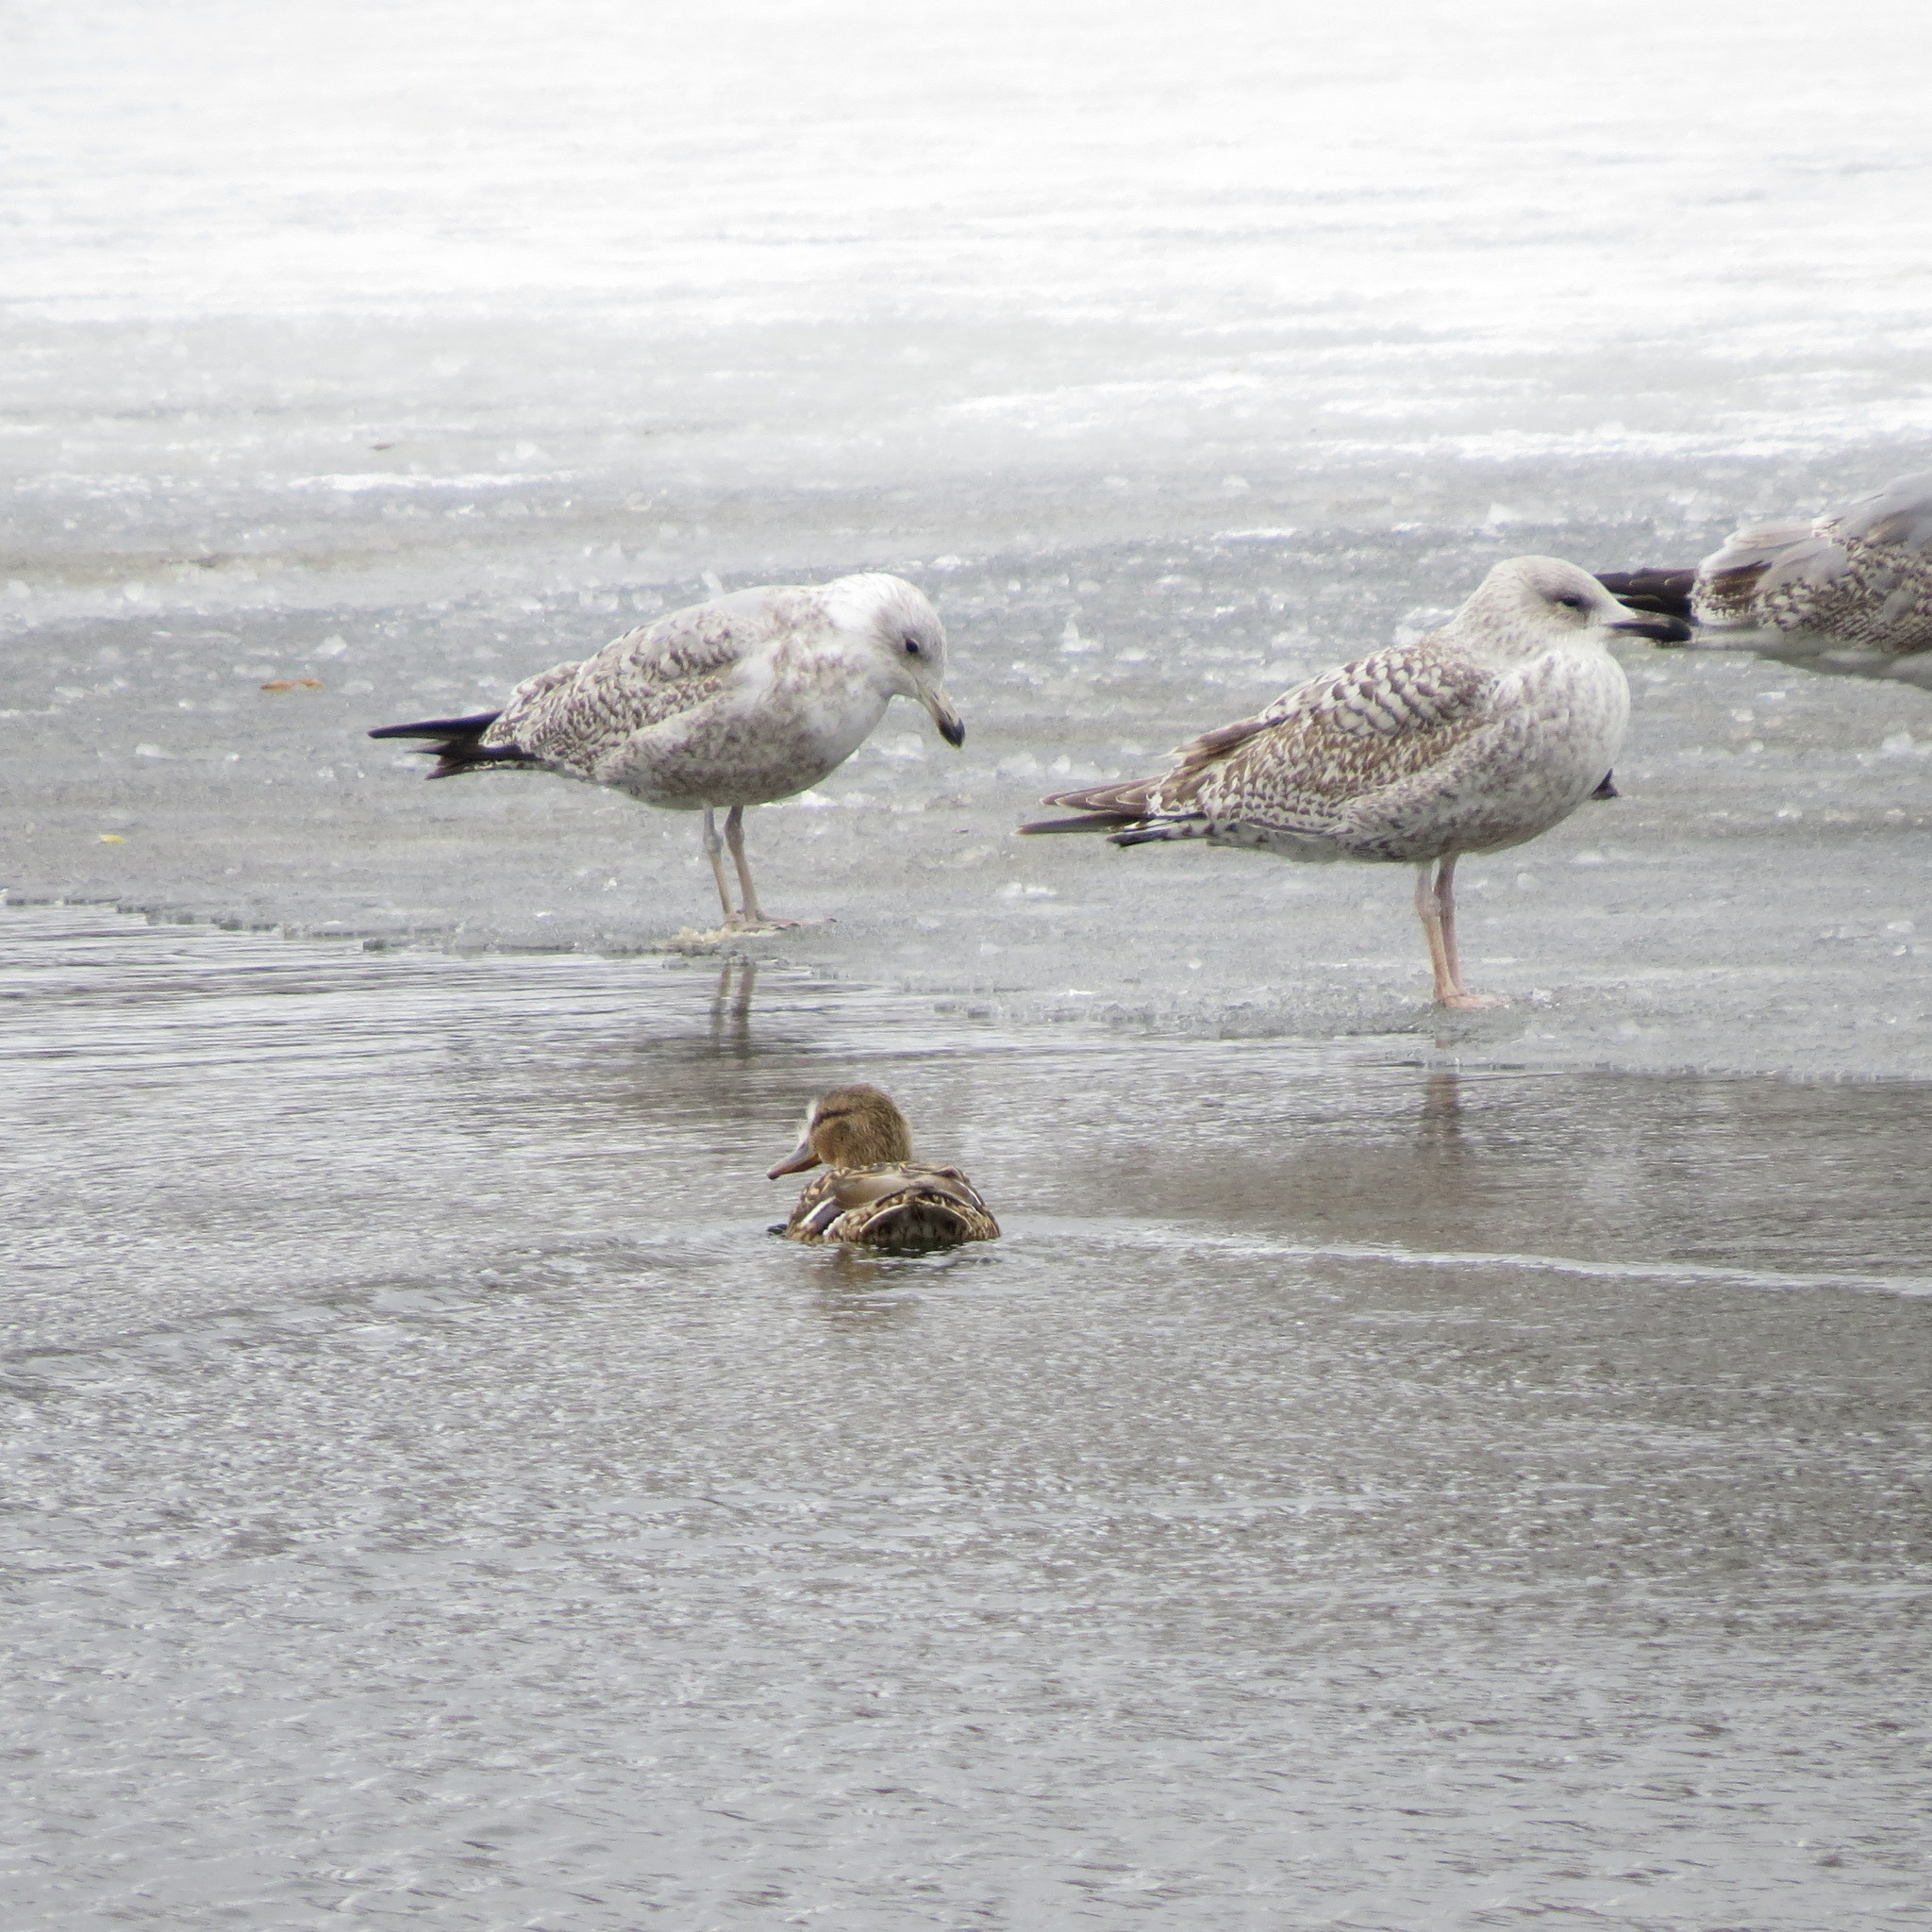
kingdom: Animalia
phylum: Chordata
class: Aves
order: Charadriiformes
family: Laridae
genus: Larus
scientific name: Larus argentatus
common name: Herring gull
